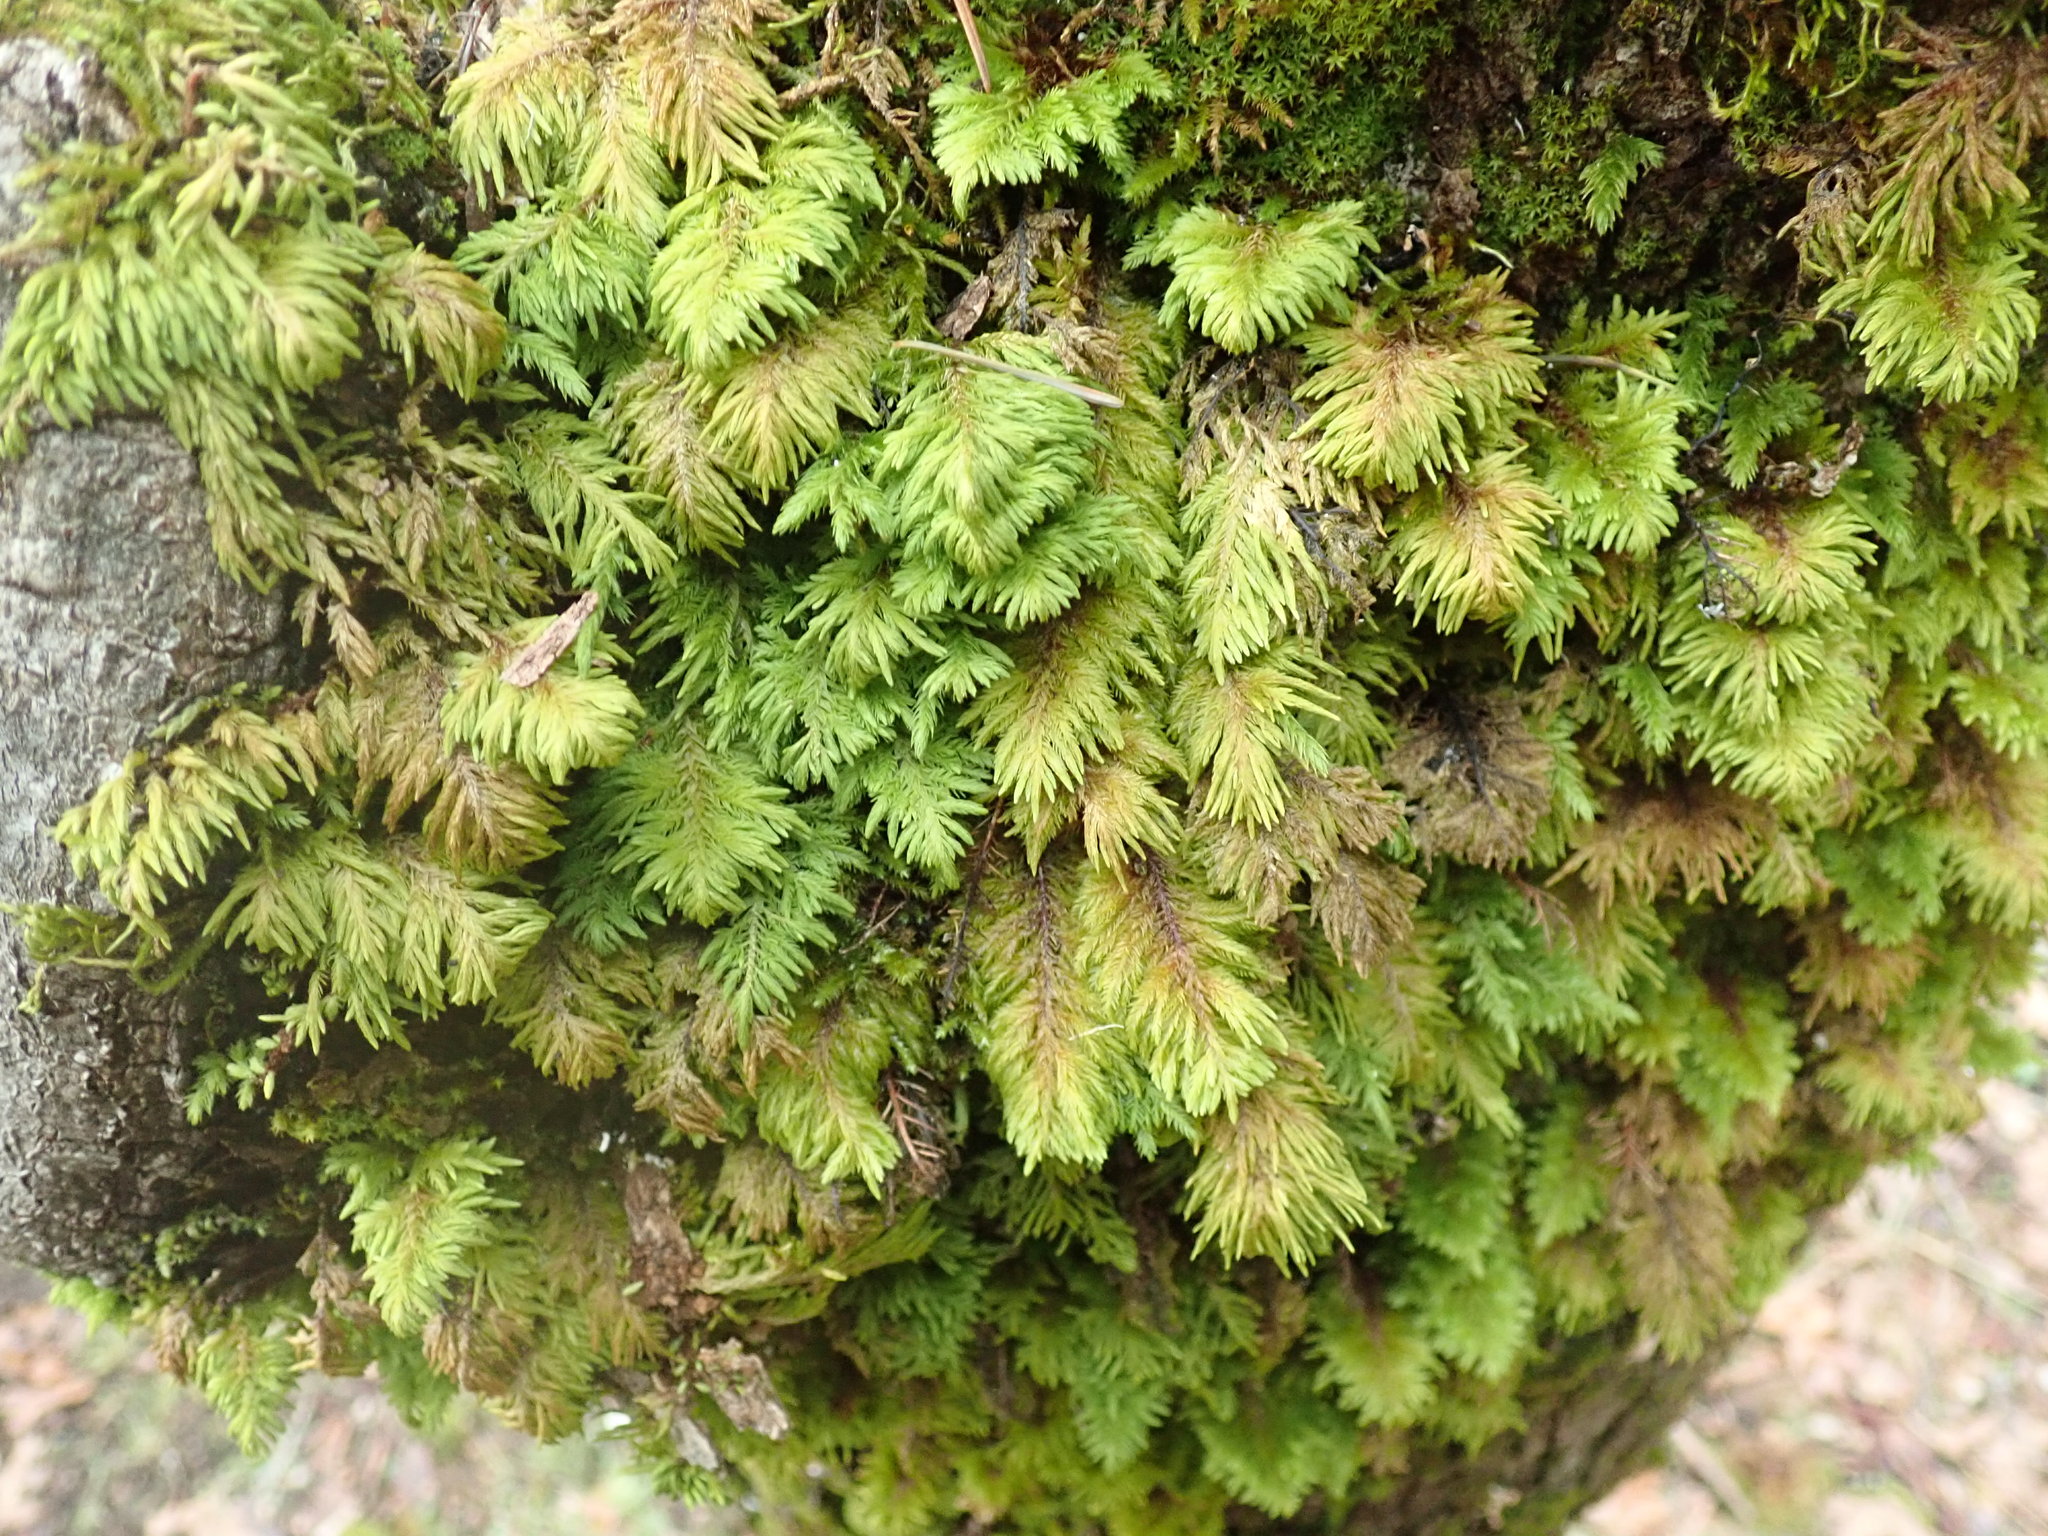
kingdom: Plantae
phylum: Bryophyta
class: Bryopsida
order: Hypnales
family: Cryphaeaceae
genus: Dendroalsia
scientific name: Dendroalsia abietina
